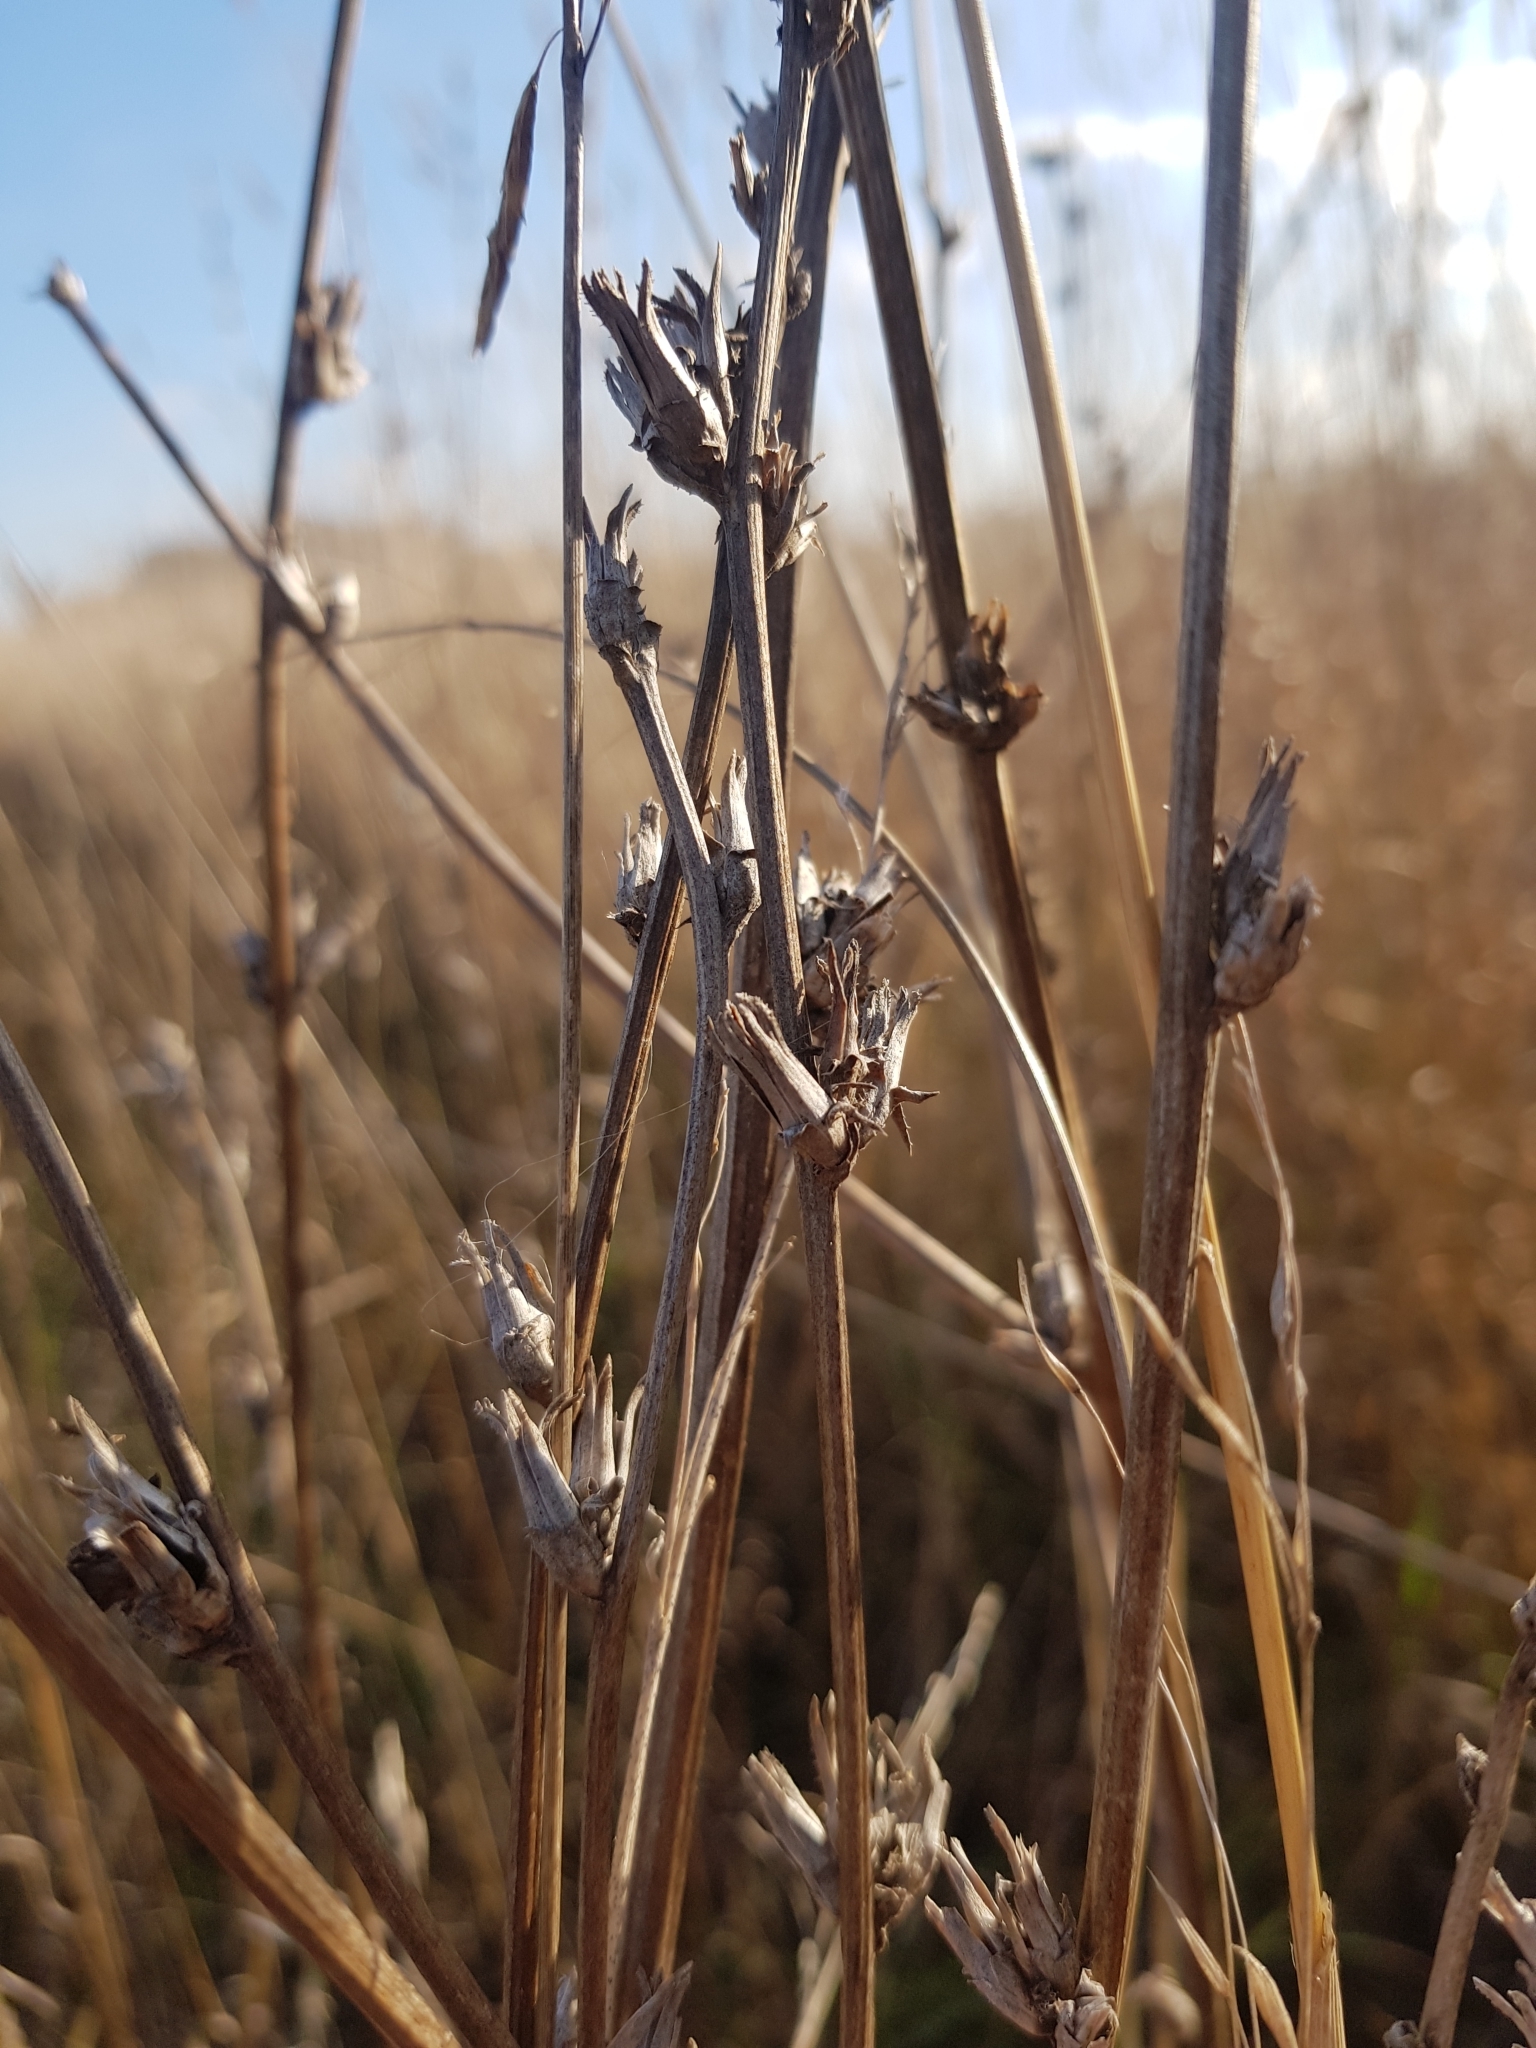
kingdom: Plantae
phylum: Tracheophyta
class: Magnoliopsida
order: Asterales
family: Asteraceae
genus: Cichorium
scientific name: Cichorium intybus
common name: Chicory
